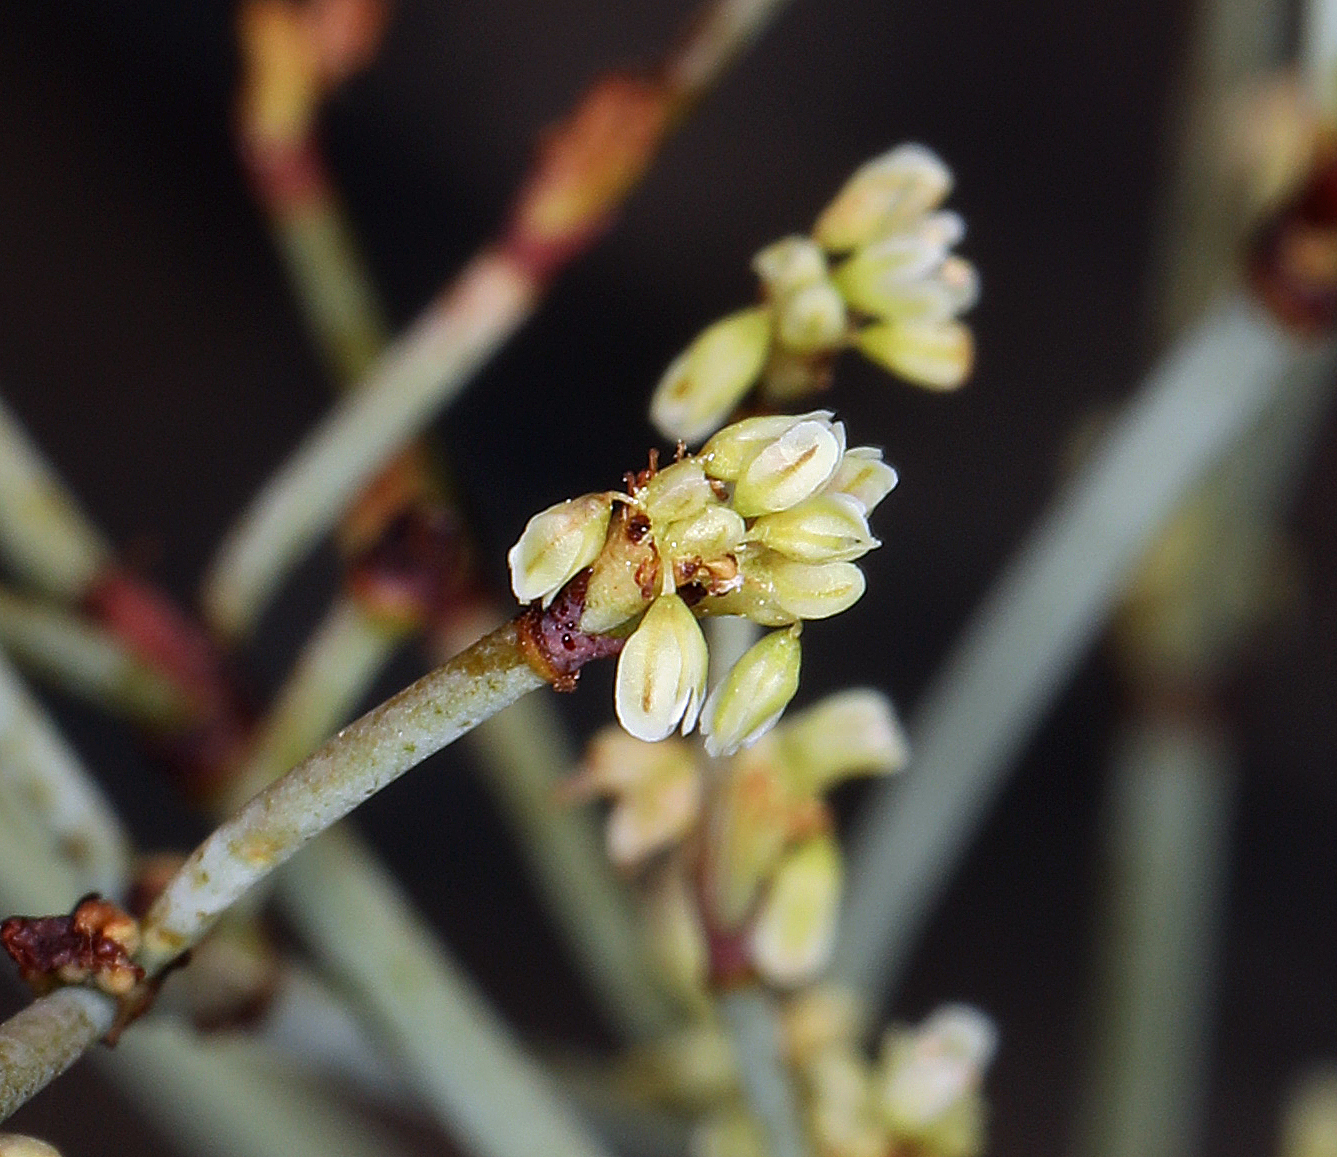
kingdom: Plantae
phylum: Tracheophyta
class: Magnoliopsida
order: Caryophyllales
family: Polygonaceae
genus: Eriogonum
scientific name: Eriogonum brachyanthum
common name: Short-flower wild buckwheat
